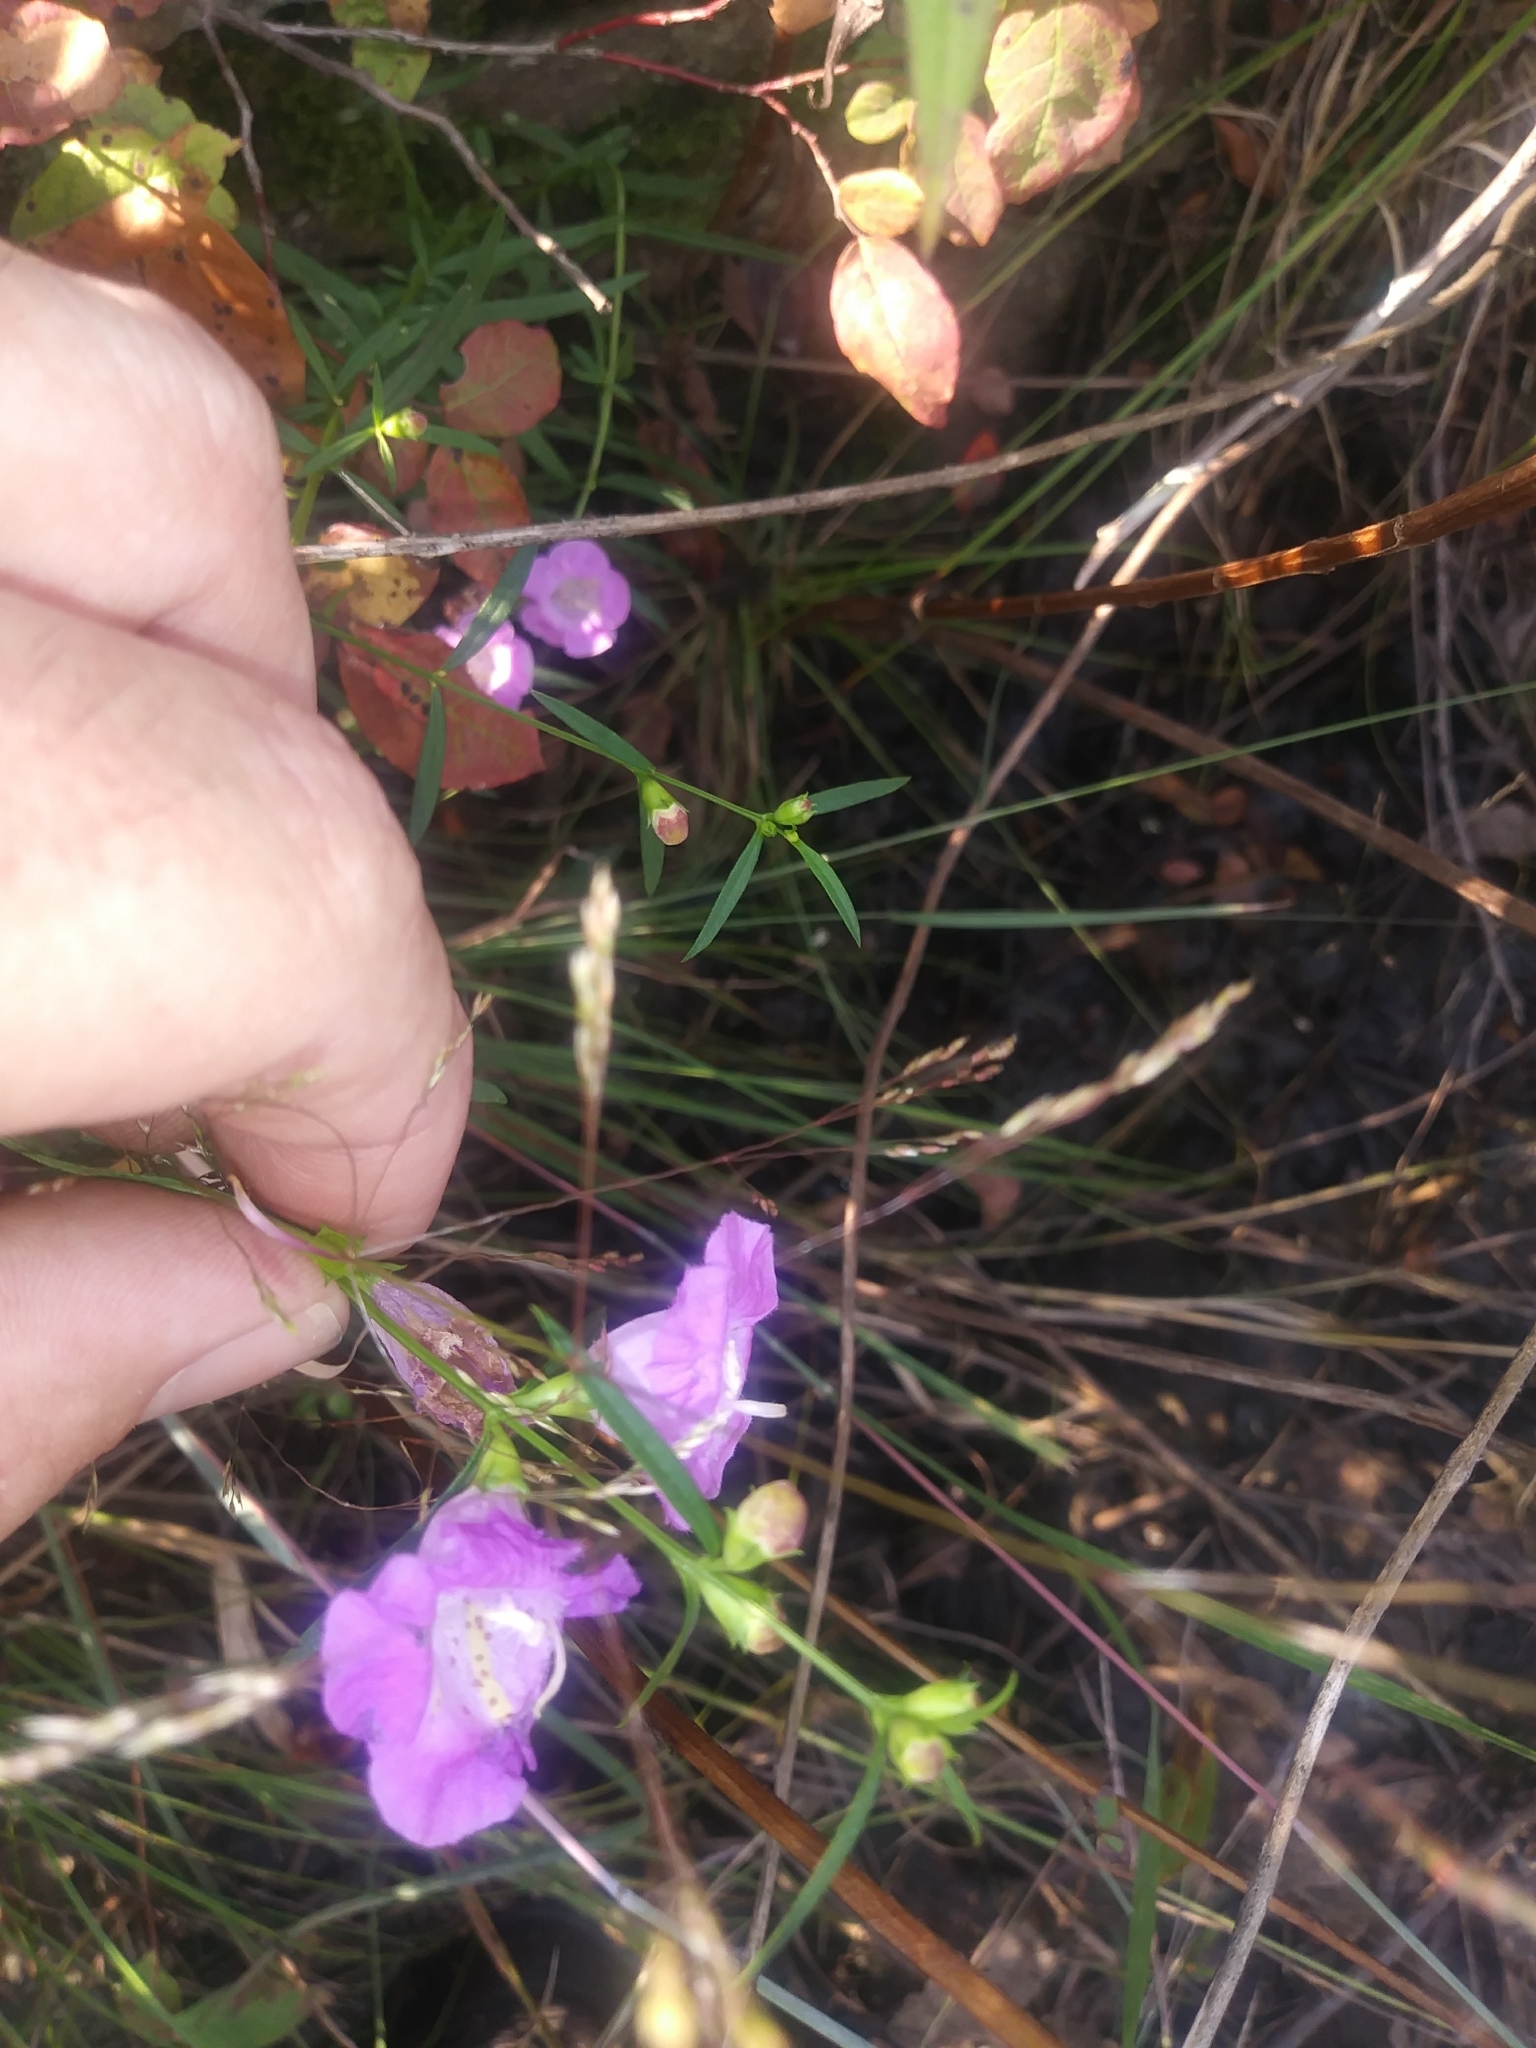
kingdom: Plantae
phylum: Tracheophyta
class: Magnoliopsida
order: Lamiales
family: Orobanchaceae
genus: Agalinis
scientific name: Agalinis purpurea
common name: Purple false foxglove
